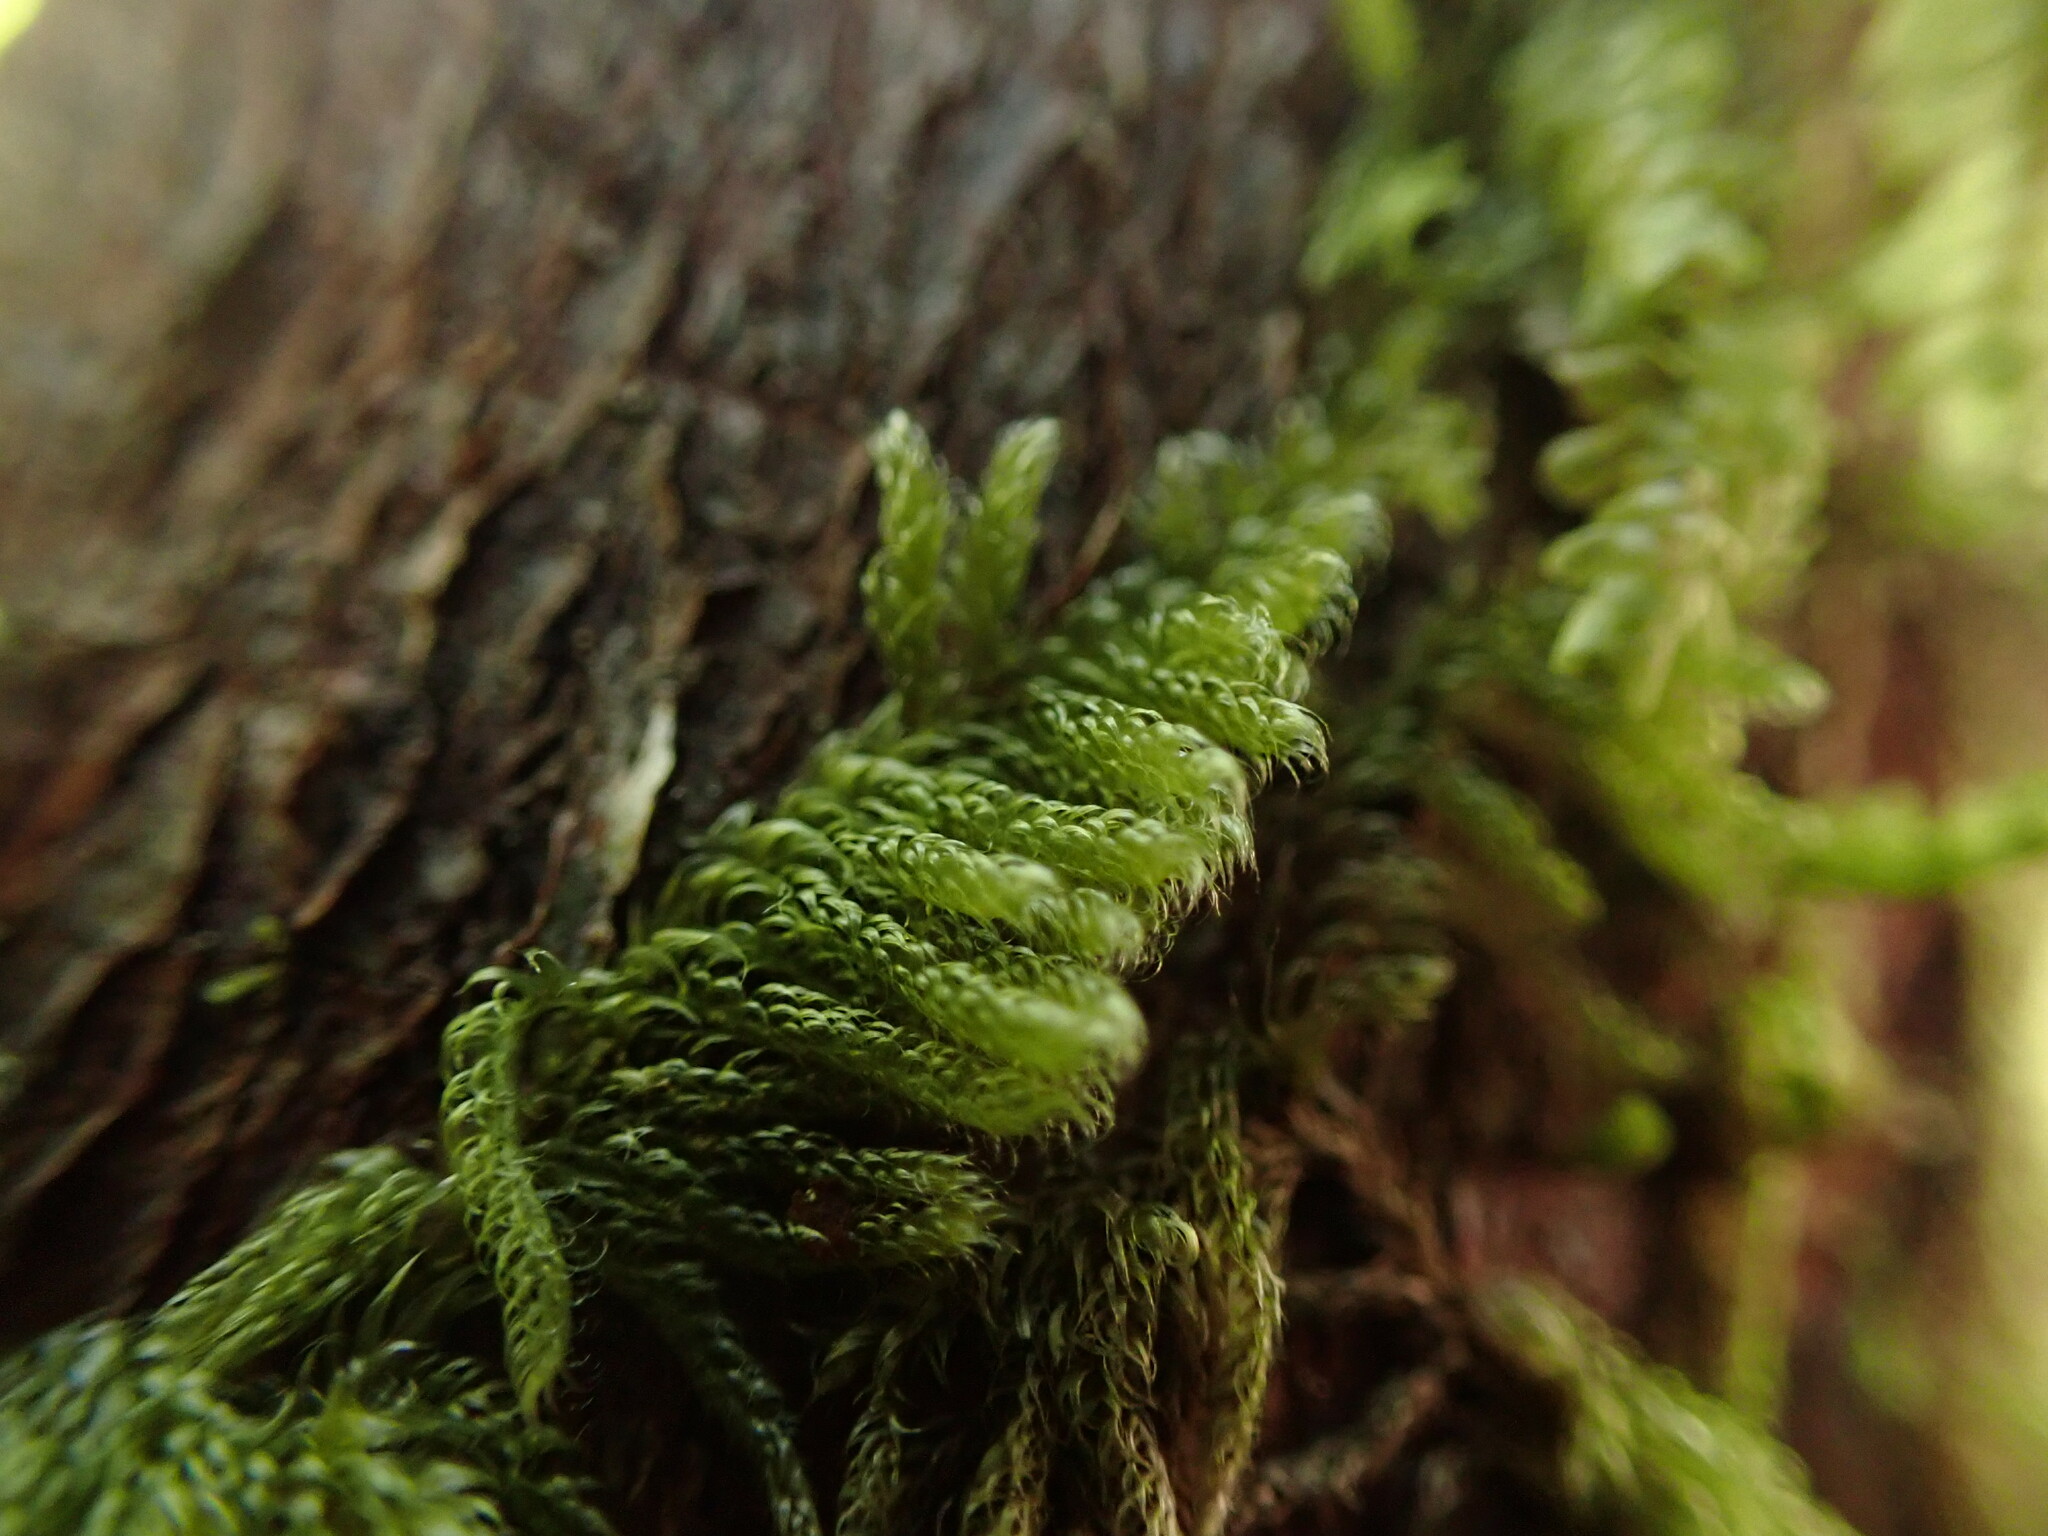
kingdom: Plantae
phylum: Bryophyta
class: Bryopsida
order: Hypnales
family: Pylaisiadelphaceae
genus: Trochophyllohypnum
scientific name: Trochophyllohypnum circinale
